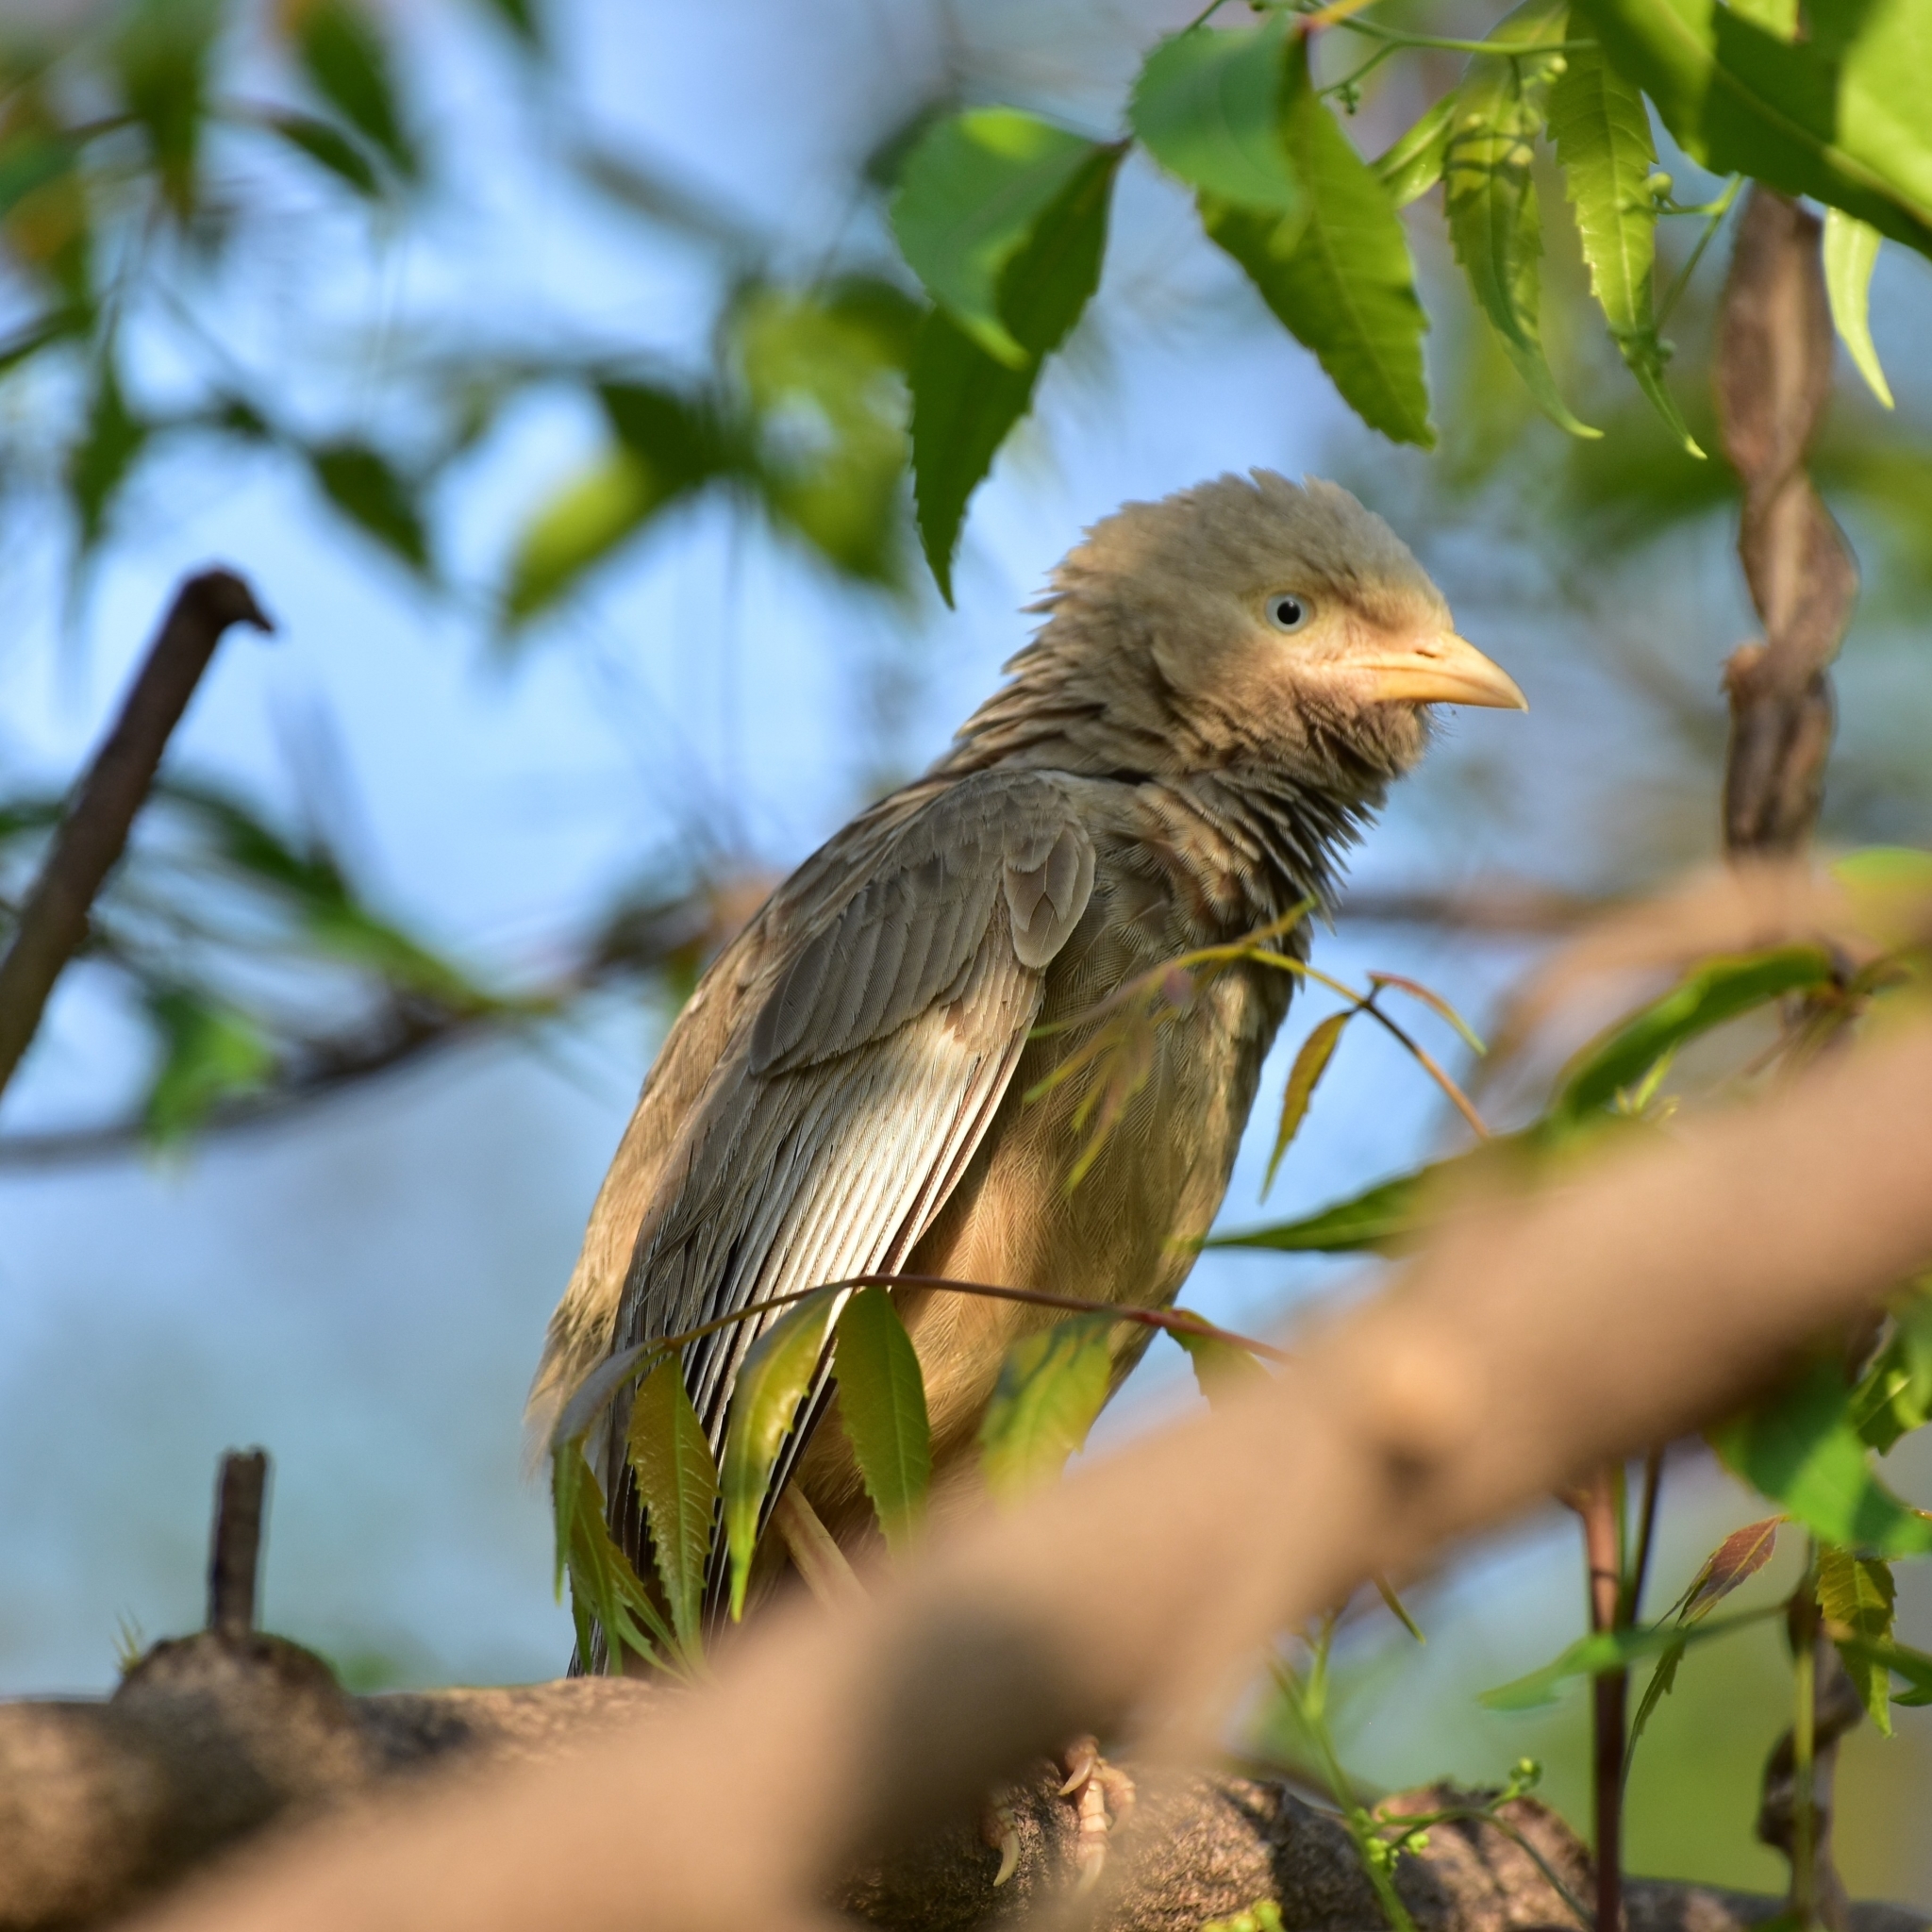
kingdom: Animalia
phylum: Chordata
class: Aves
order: Passeriformes
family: Leiothrichidae
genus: Turdoides
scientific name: Turdoides affinis
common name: Yellow-billed babbler
